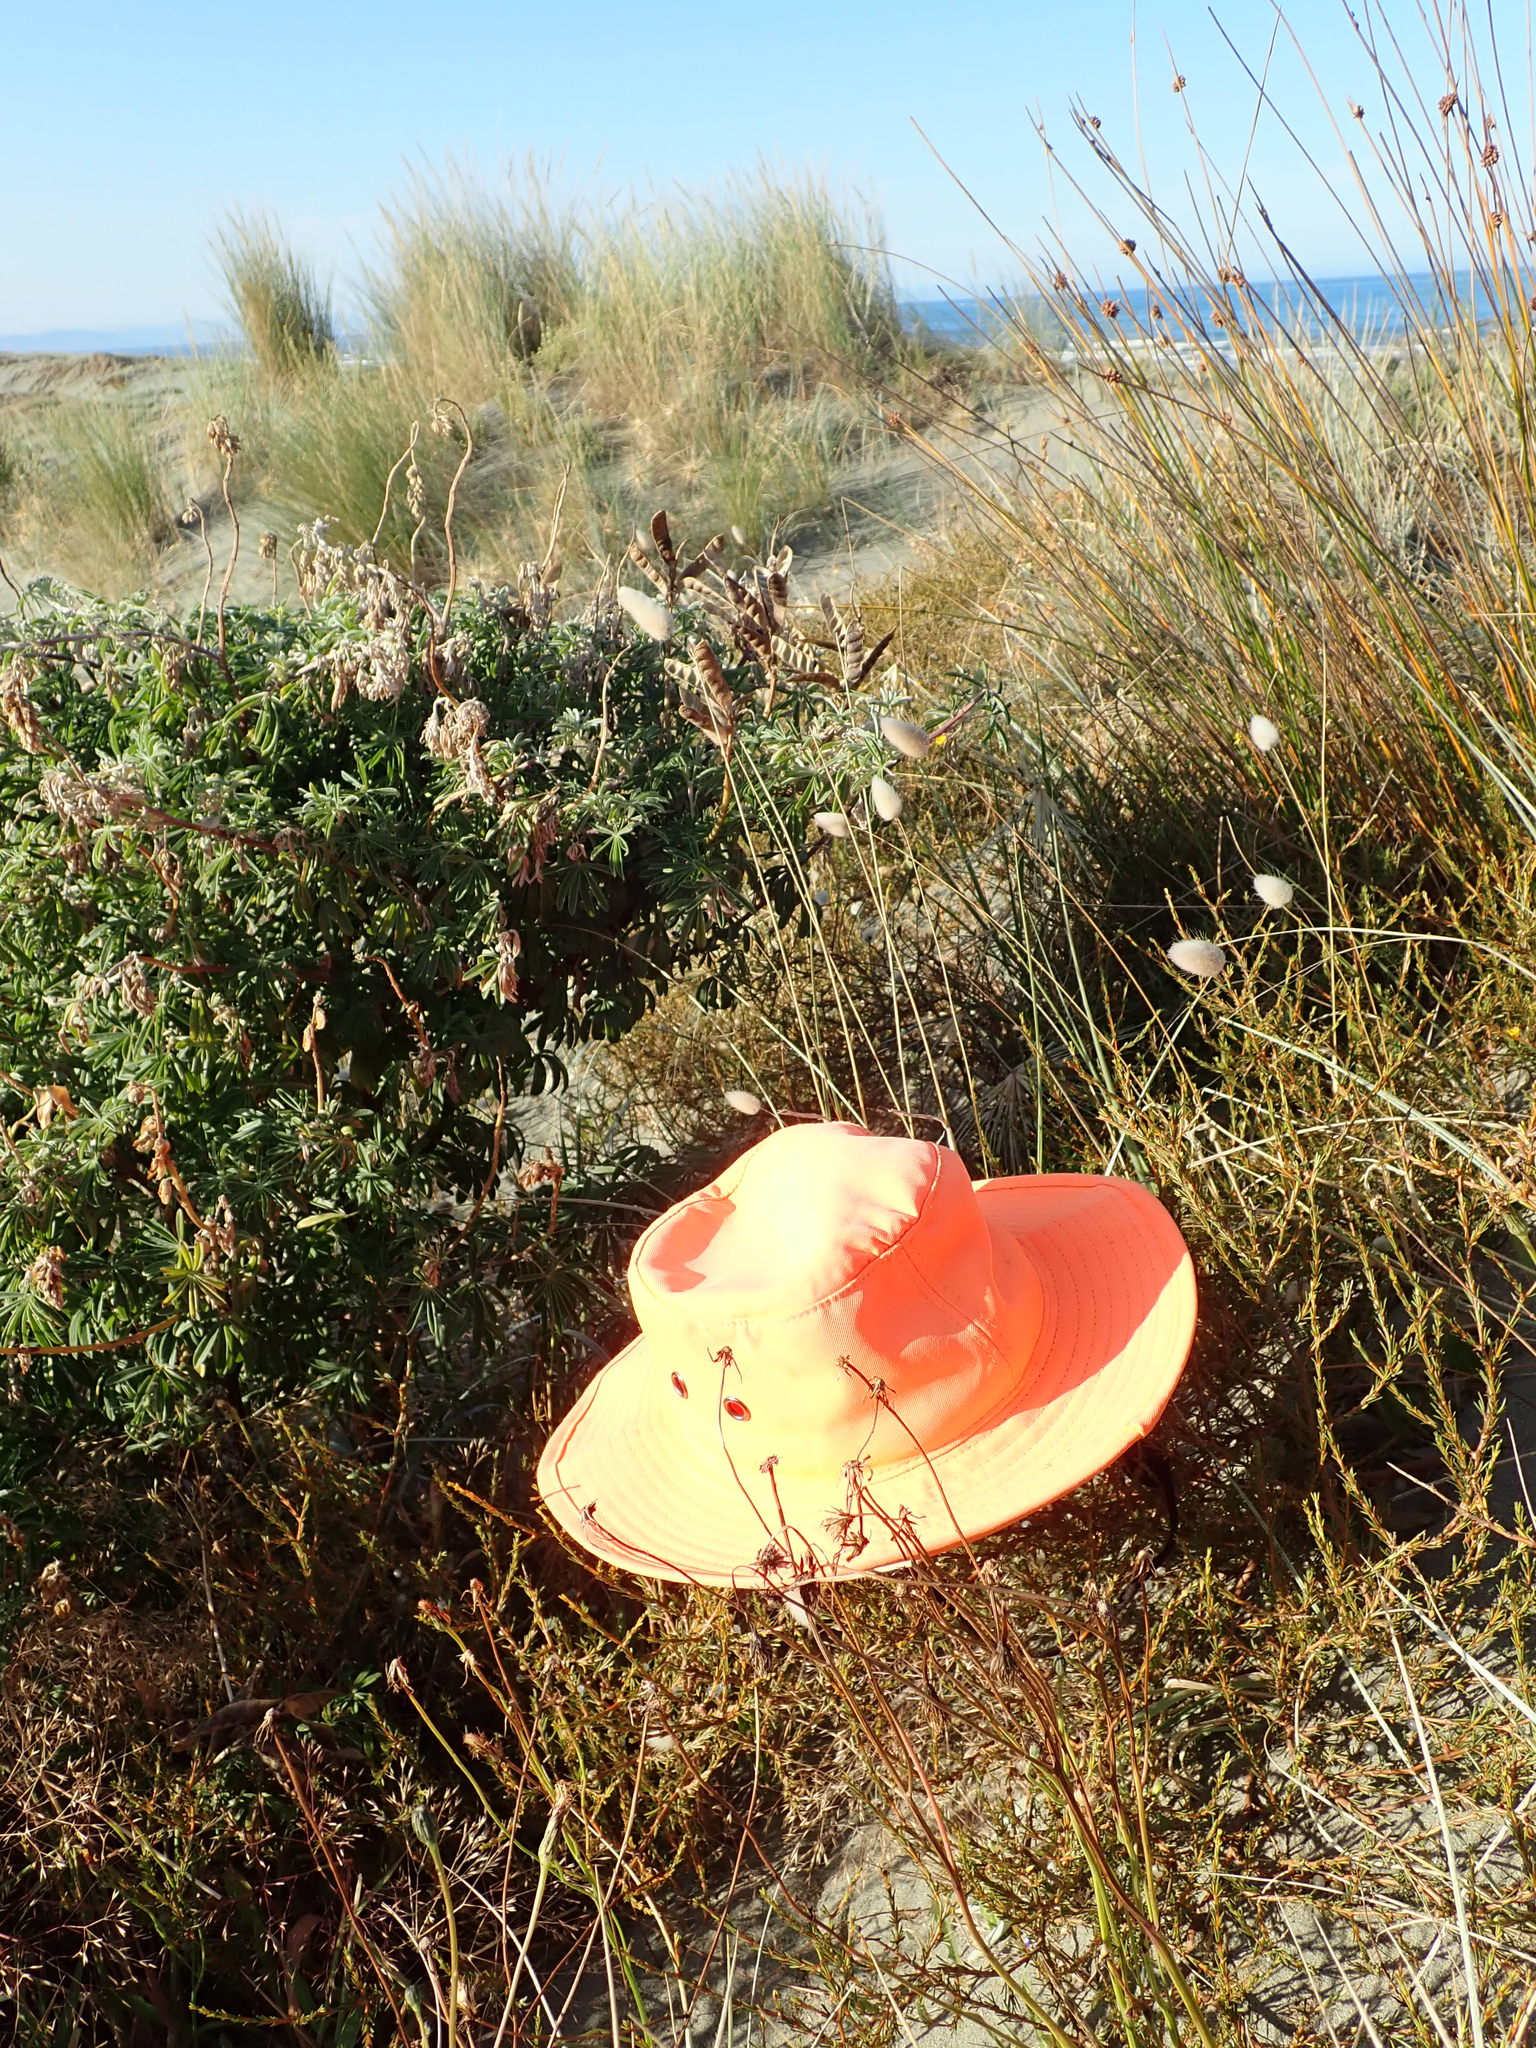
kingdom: Plantae
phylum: Tracheophyta
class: Magnoliopsida
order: Gentianales
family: Rubiaceae
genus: Coprosma
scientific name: Coprosma acerosa
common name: Sand coprosma
